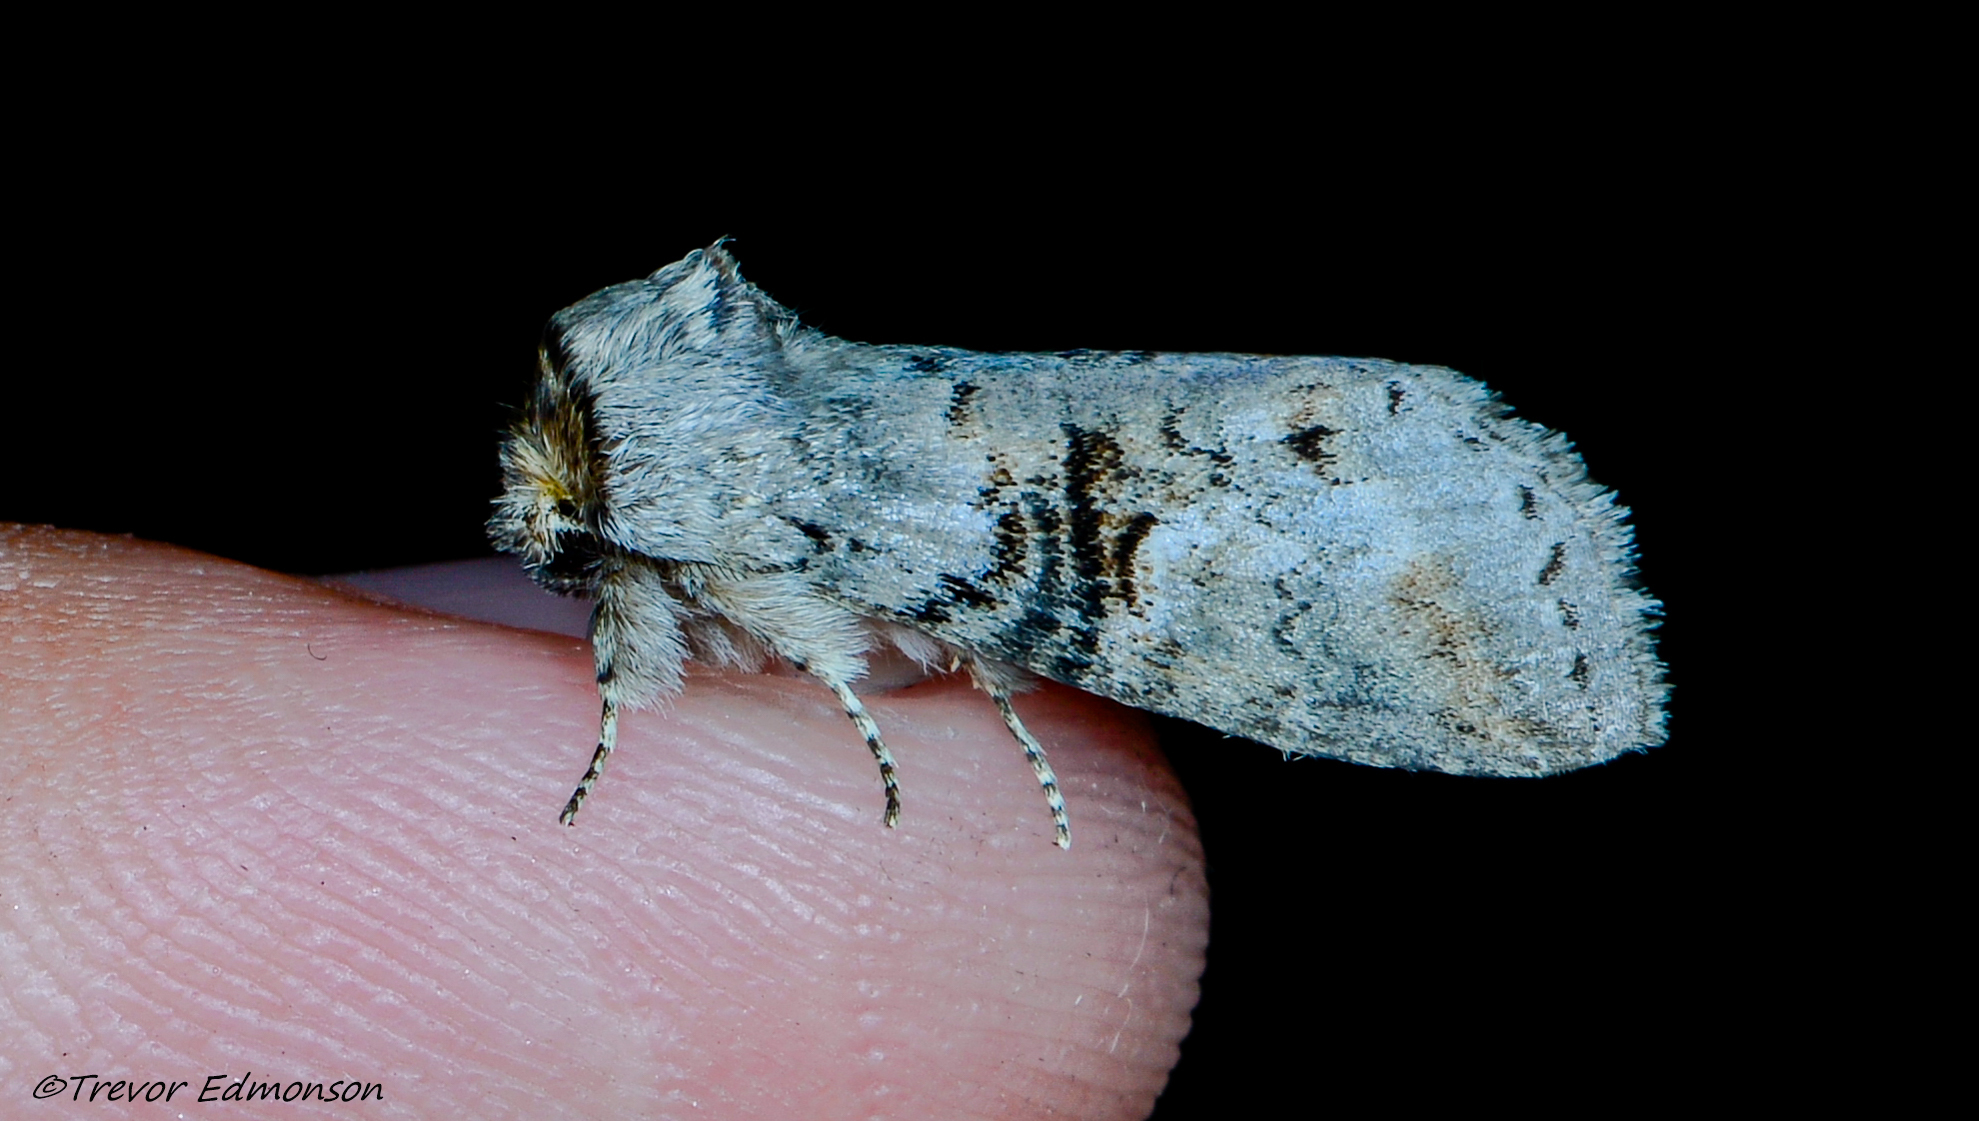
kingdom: Animalia
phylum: Arthropoda
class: Insecta
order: Lepidoptera
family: Notodontidae
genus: Ellida
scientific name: Ellida caniplaga
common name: Linden prominent
